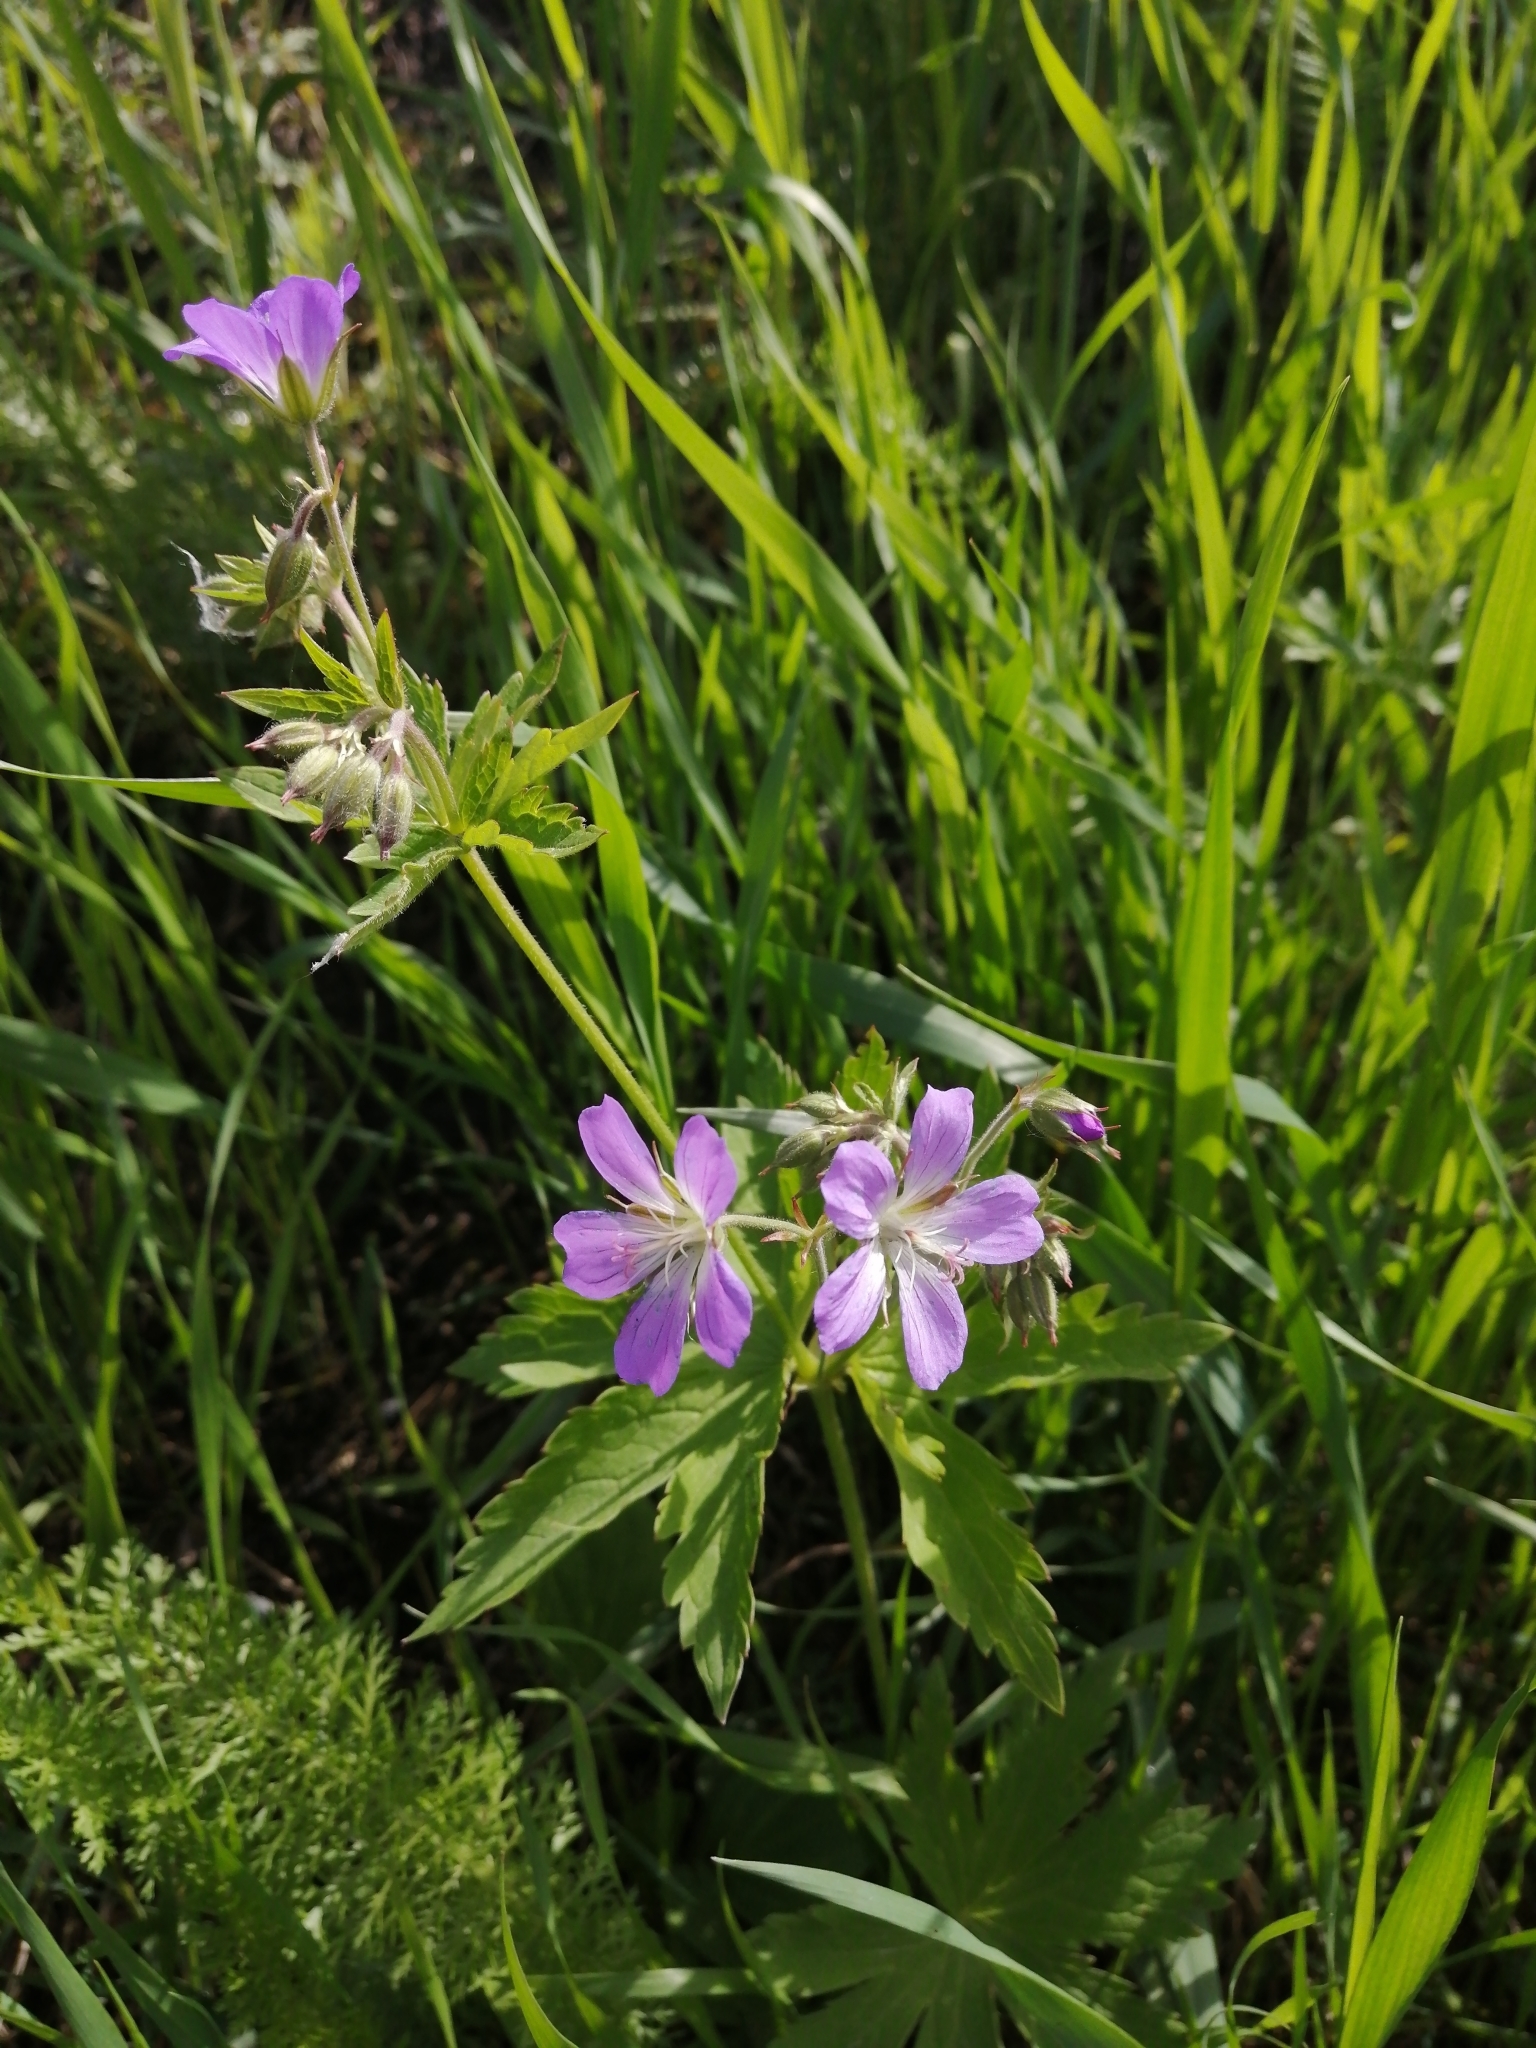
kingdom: Plantae
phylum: Tracheophyta
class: Magnoliopsida
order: Geraniales
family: Geraniaceae
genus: Geranium
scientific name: Geranium sylvaticum
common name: Wood crane's-bill
